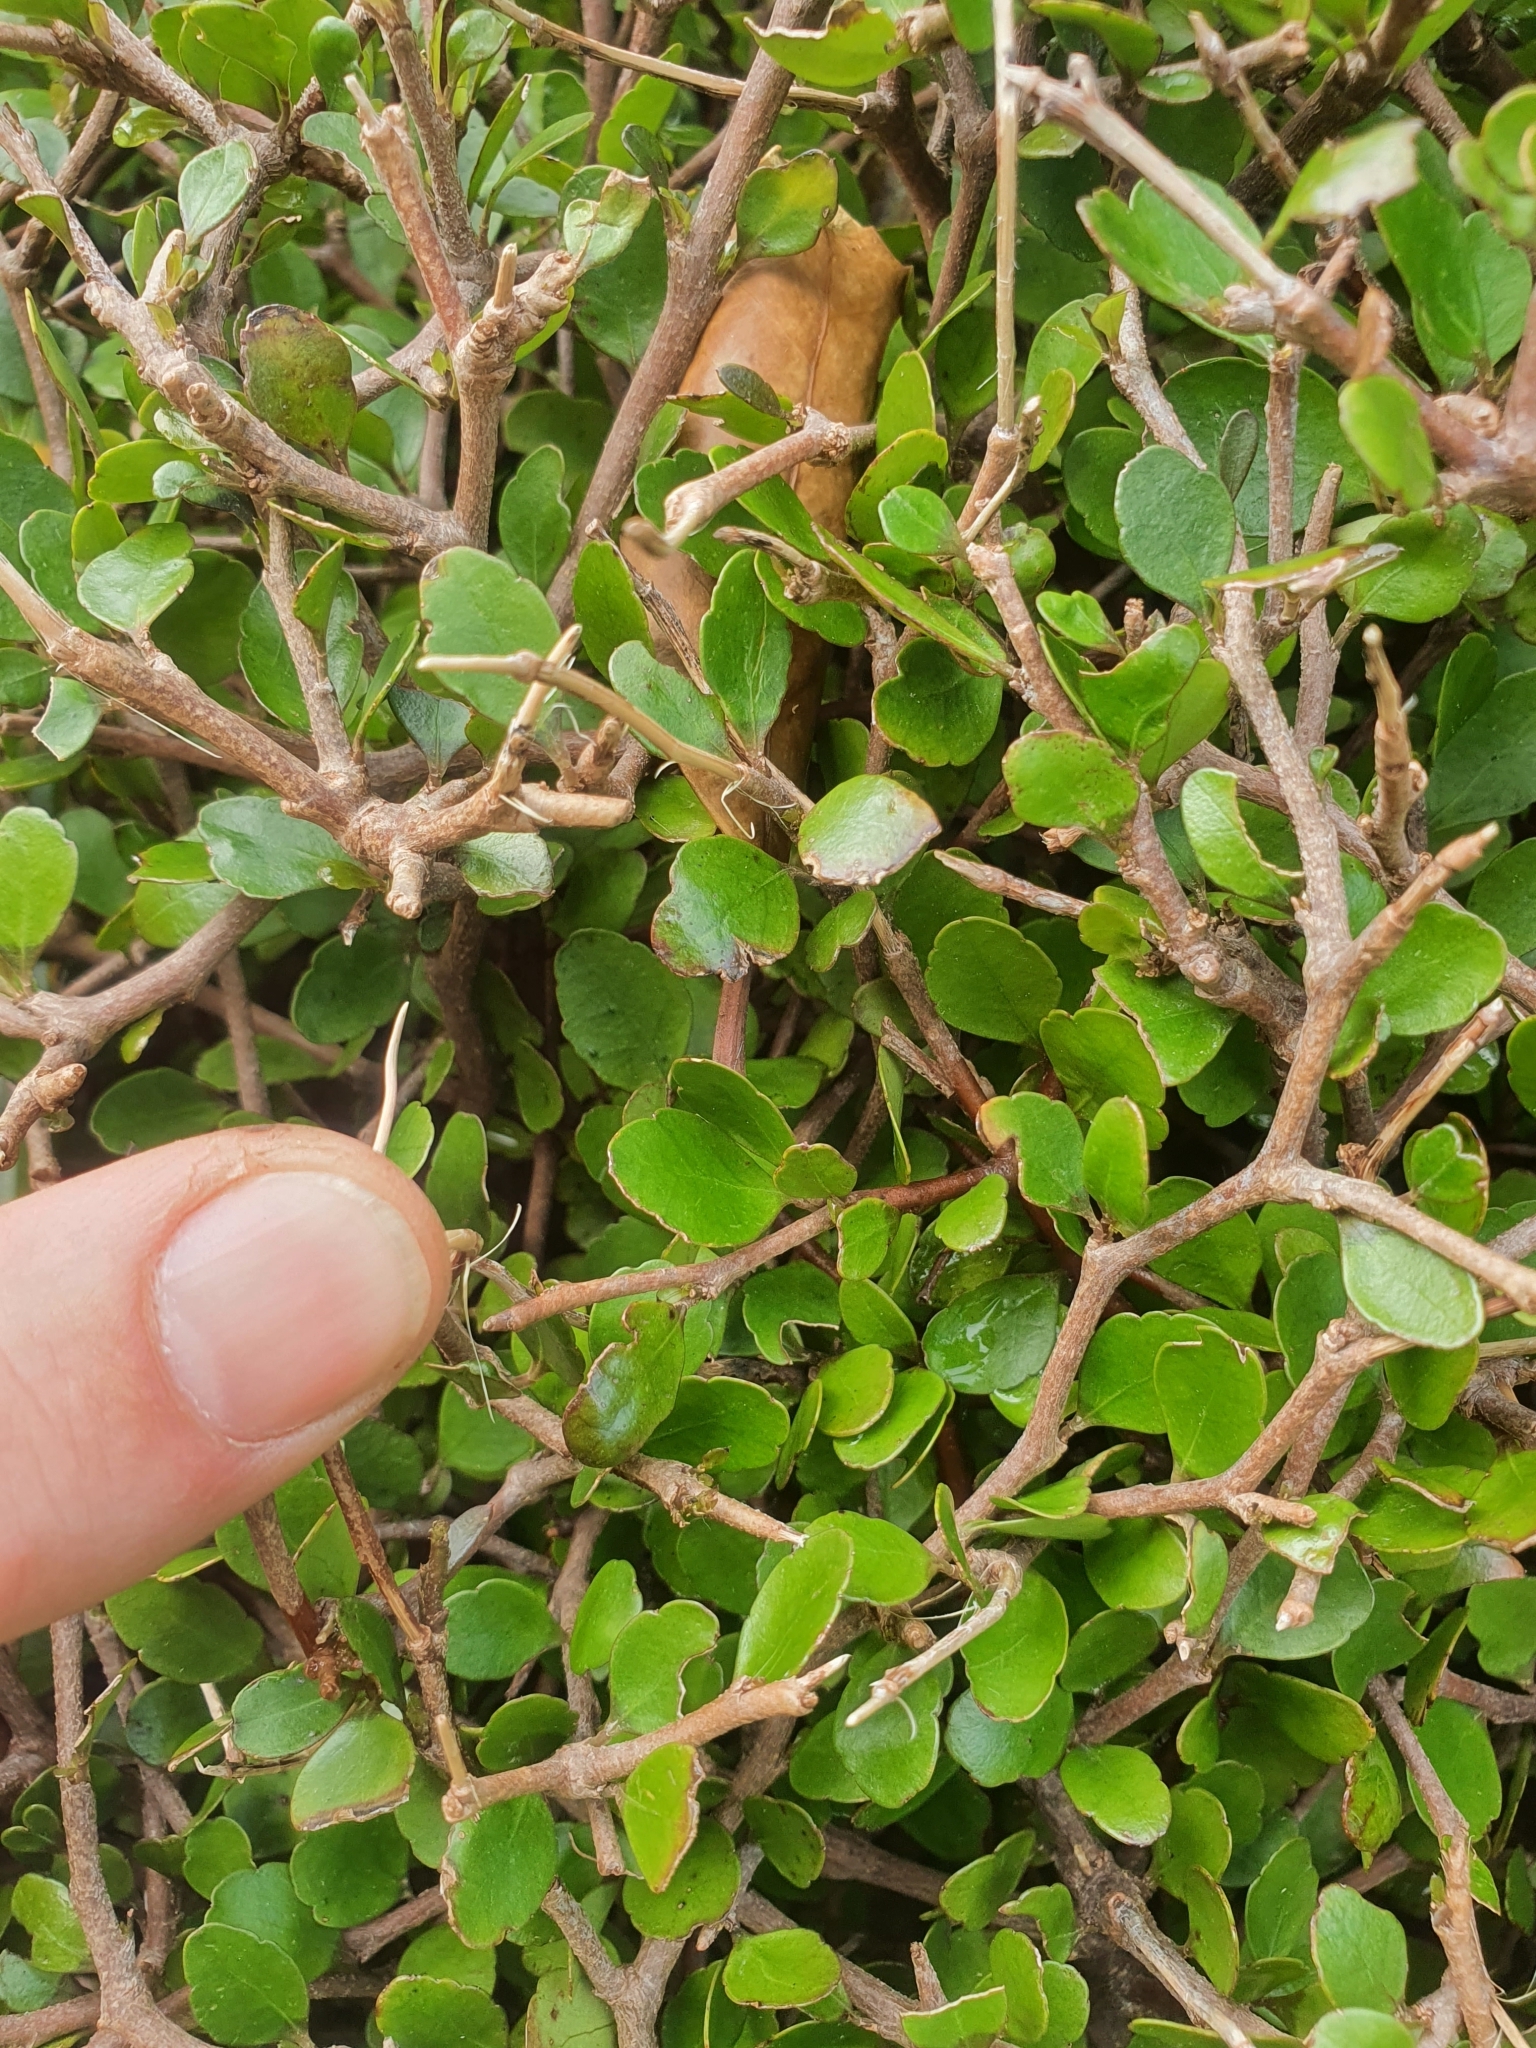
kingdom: Plantae
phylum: Tracheophyta
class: Magnoliopsida
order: Apiales
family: Araliaceae
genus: Raukaua
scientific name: Raukaua anomalus
